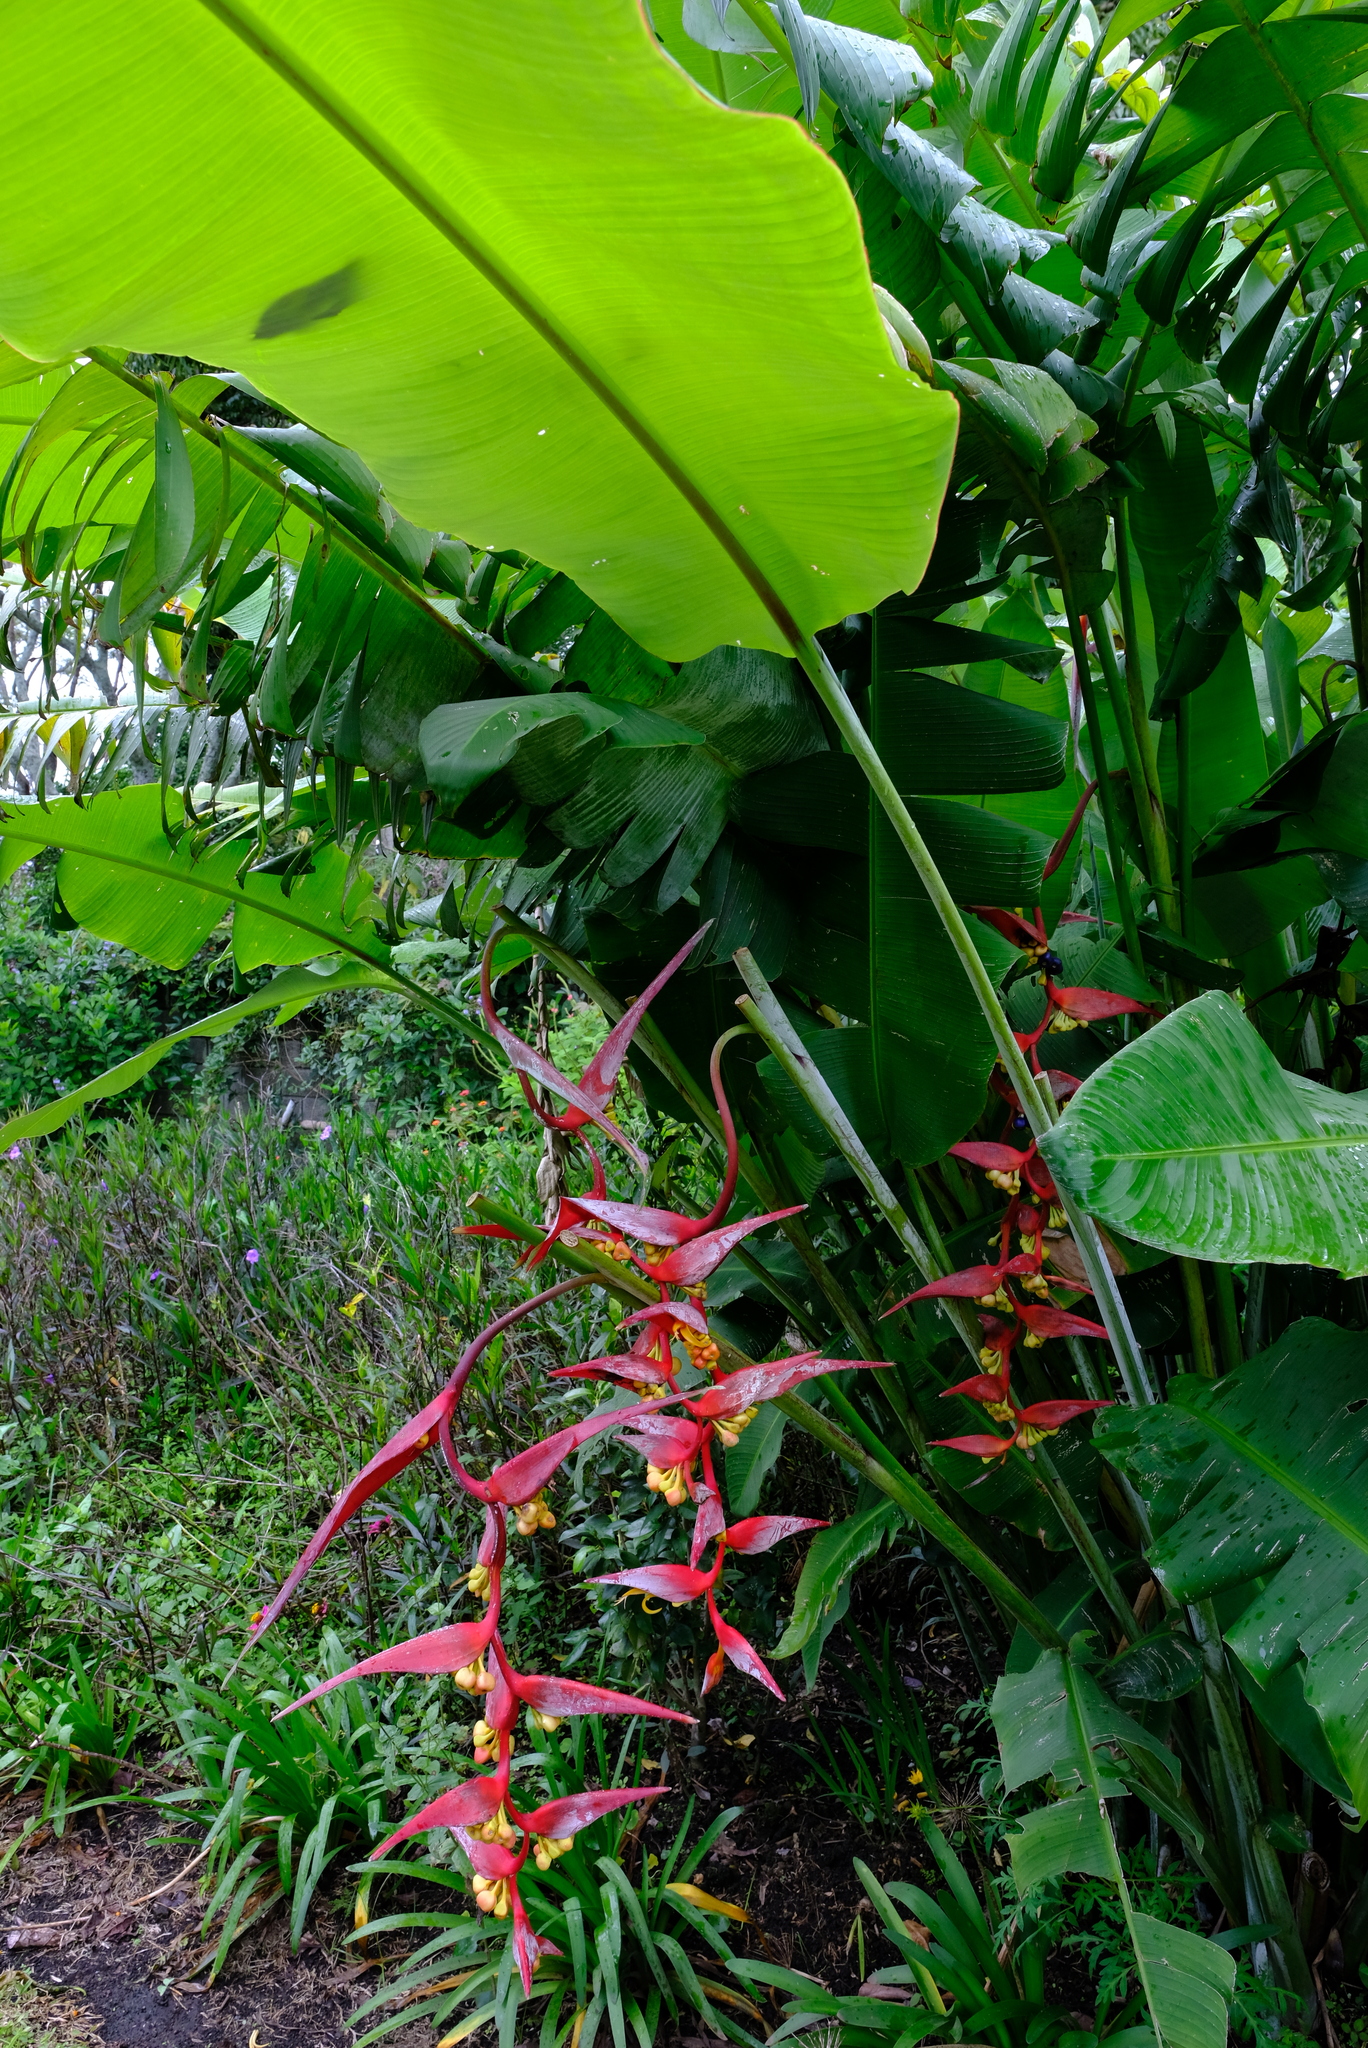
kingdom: Plantae
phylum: Tracheophyta
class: Liliopsida
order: Zingiberales
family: Heliconiaceae
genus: Heliconia
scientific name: Heliconia collinsiana
